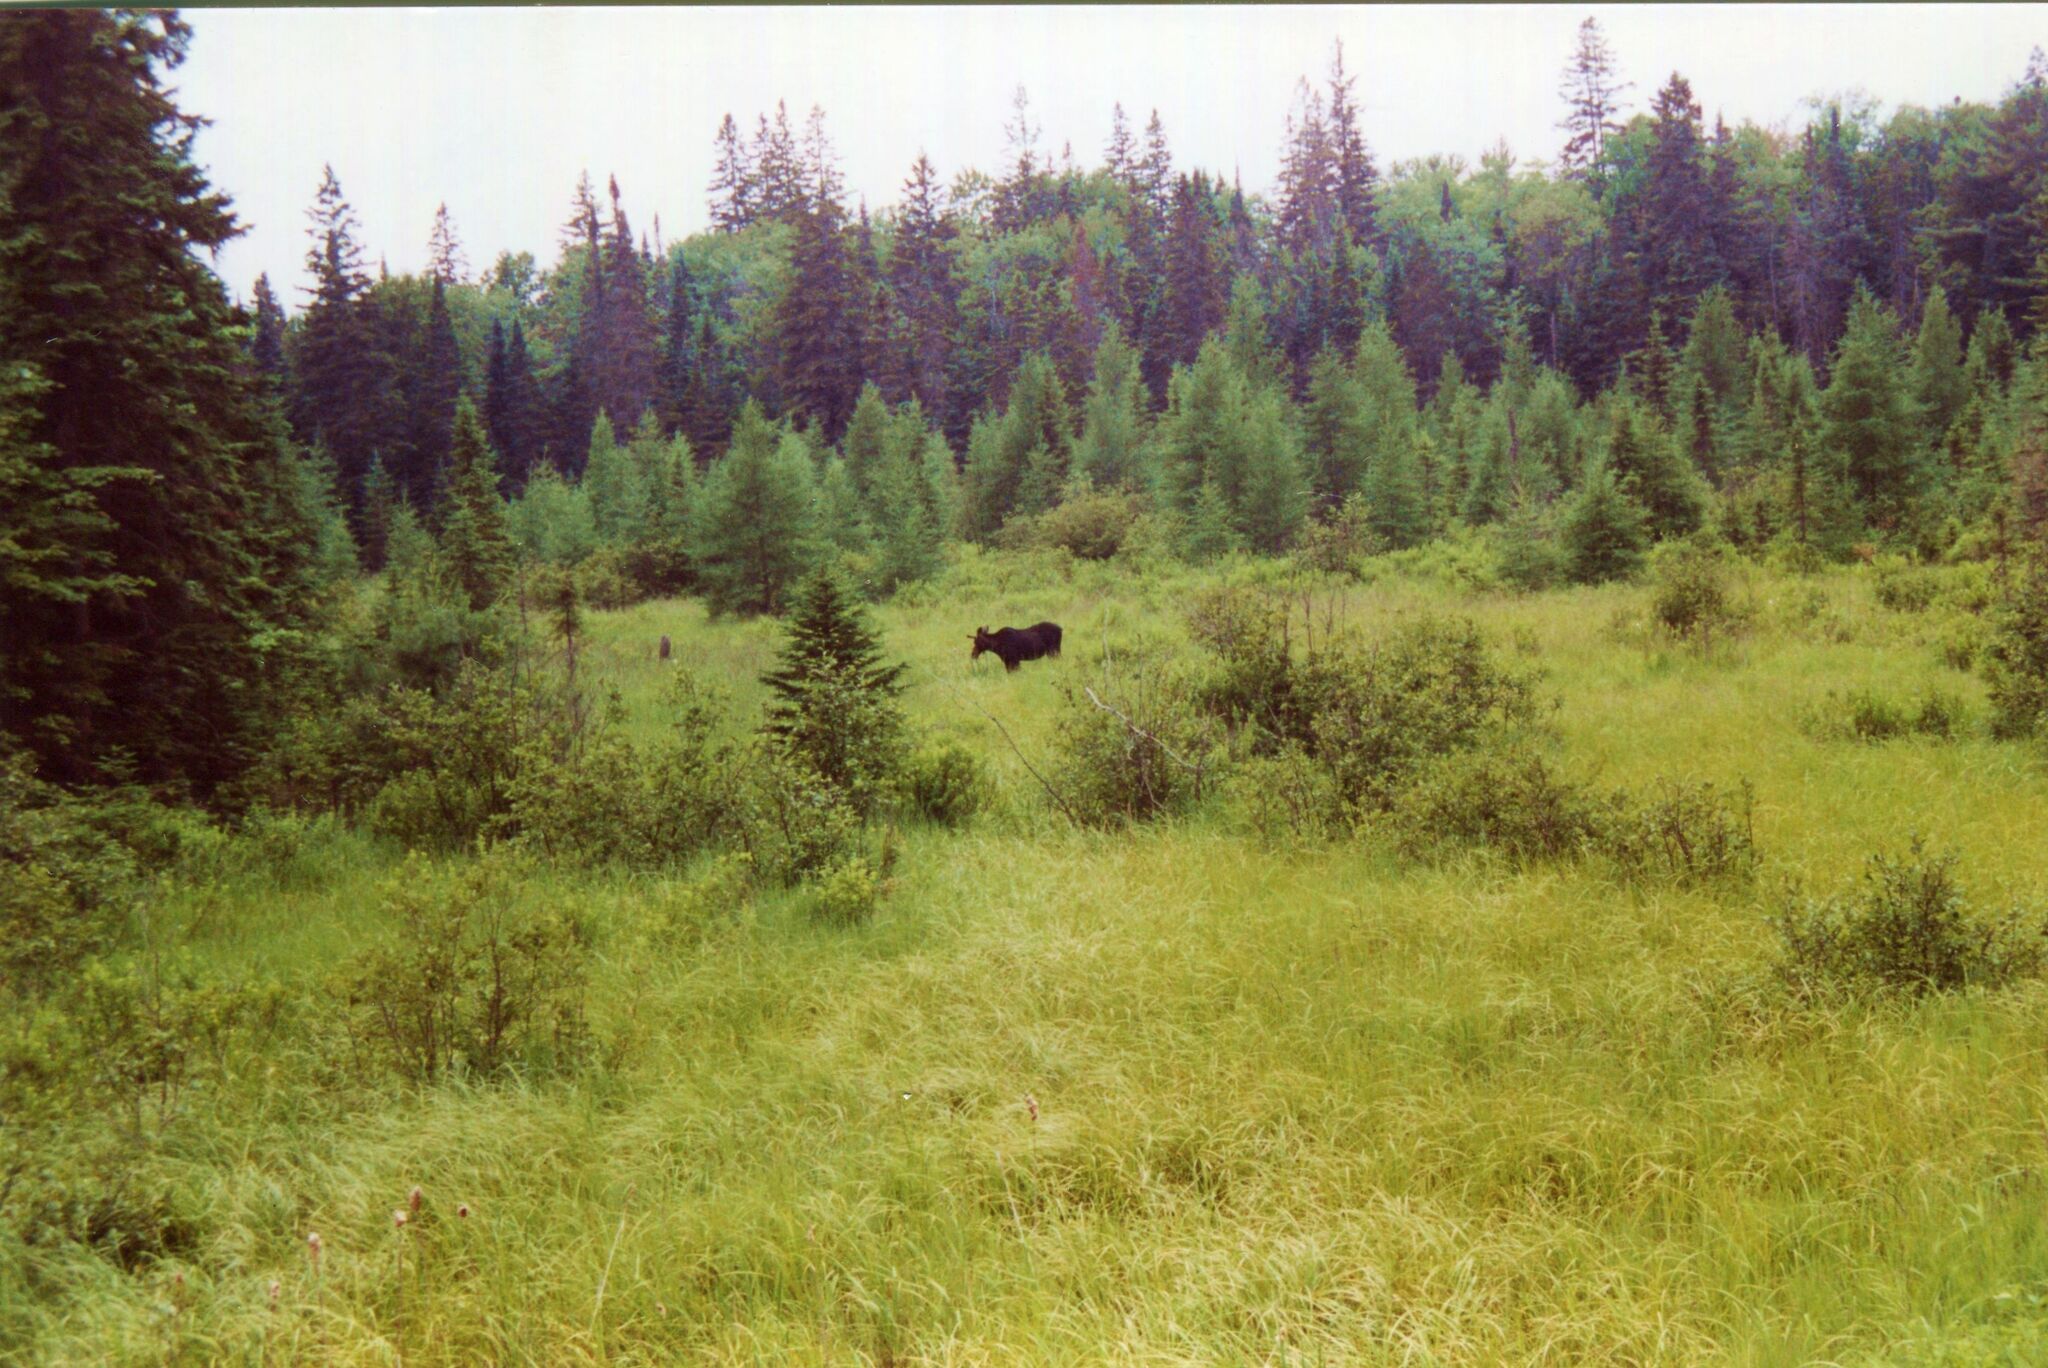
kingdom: Animalia
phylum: Chordata
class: Mammalia
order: Artiodactyla
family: Cervidae
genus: Alces
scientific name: Alces americanus
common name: Moose
